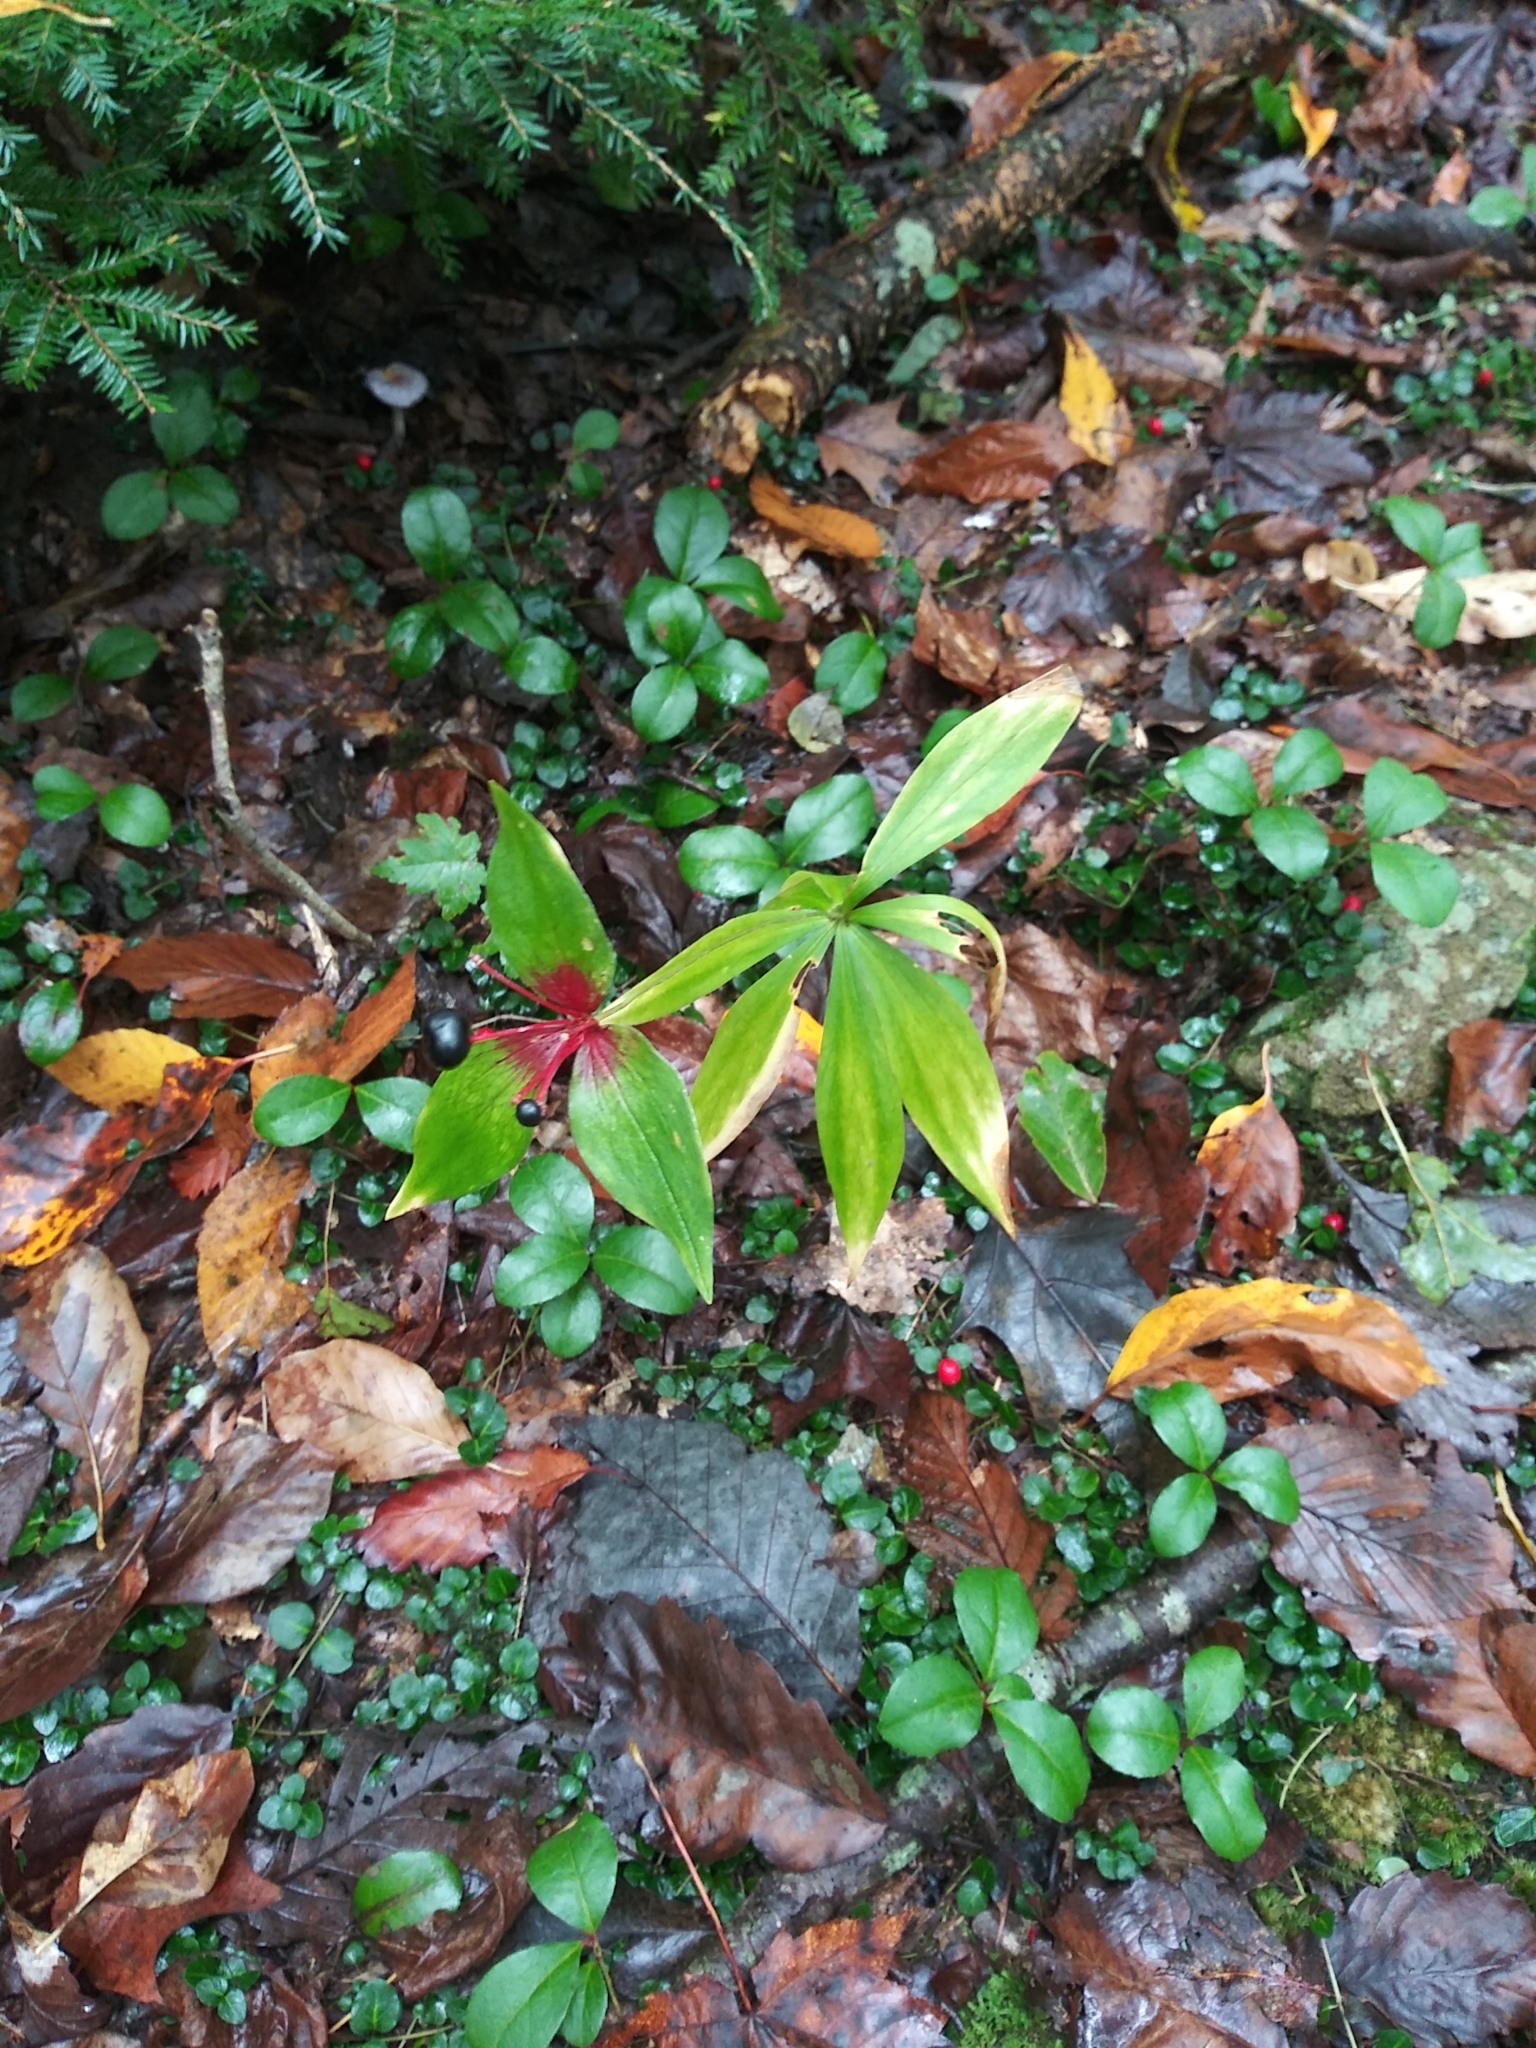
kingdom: Plantae
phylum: Tracheophyta
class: Liliopsida
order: Liliales
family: Liliaceae
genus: Medeola
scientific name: Medeola virginiana
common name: Indian cucumber-root
